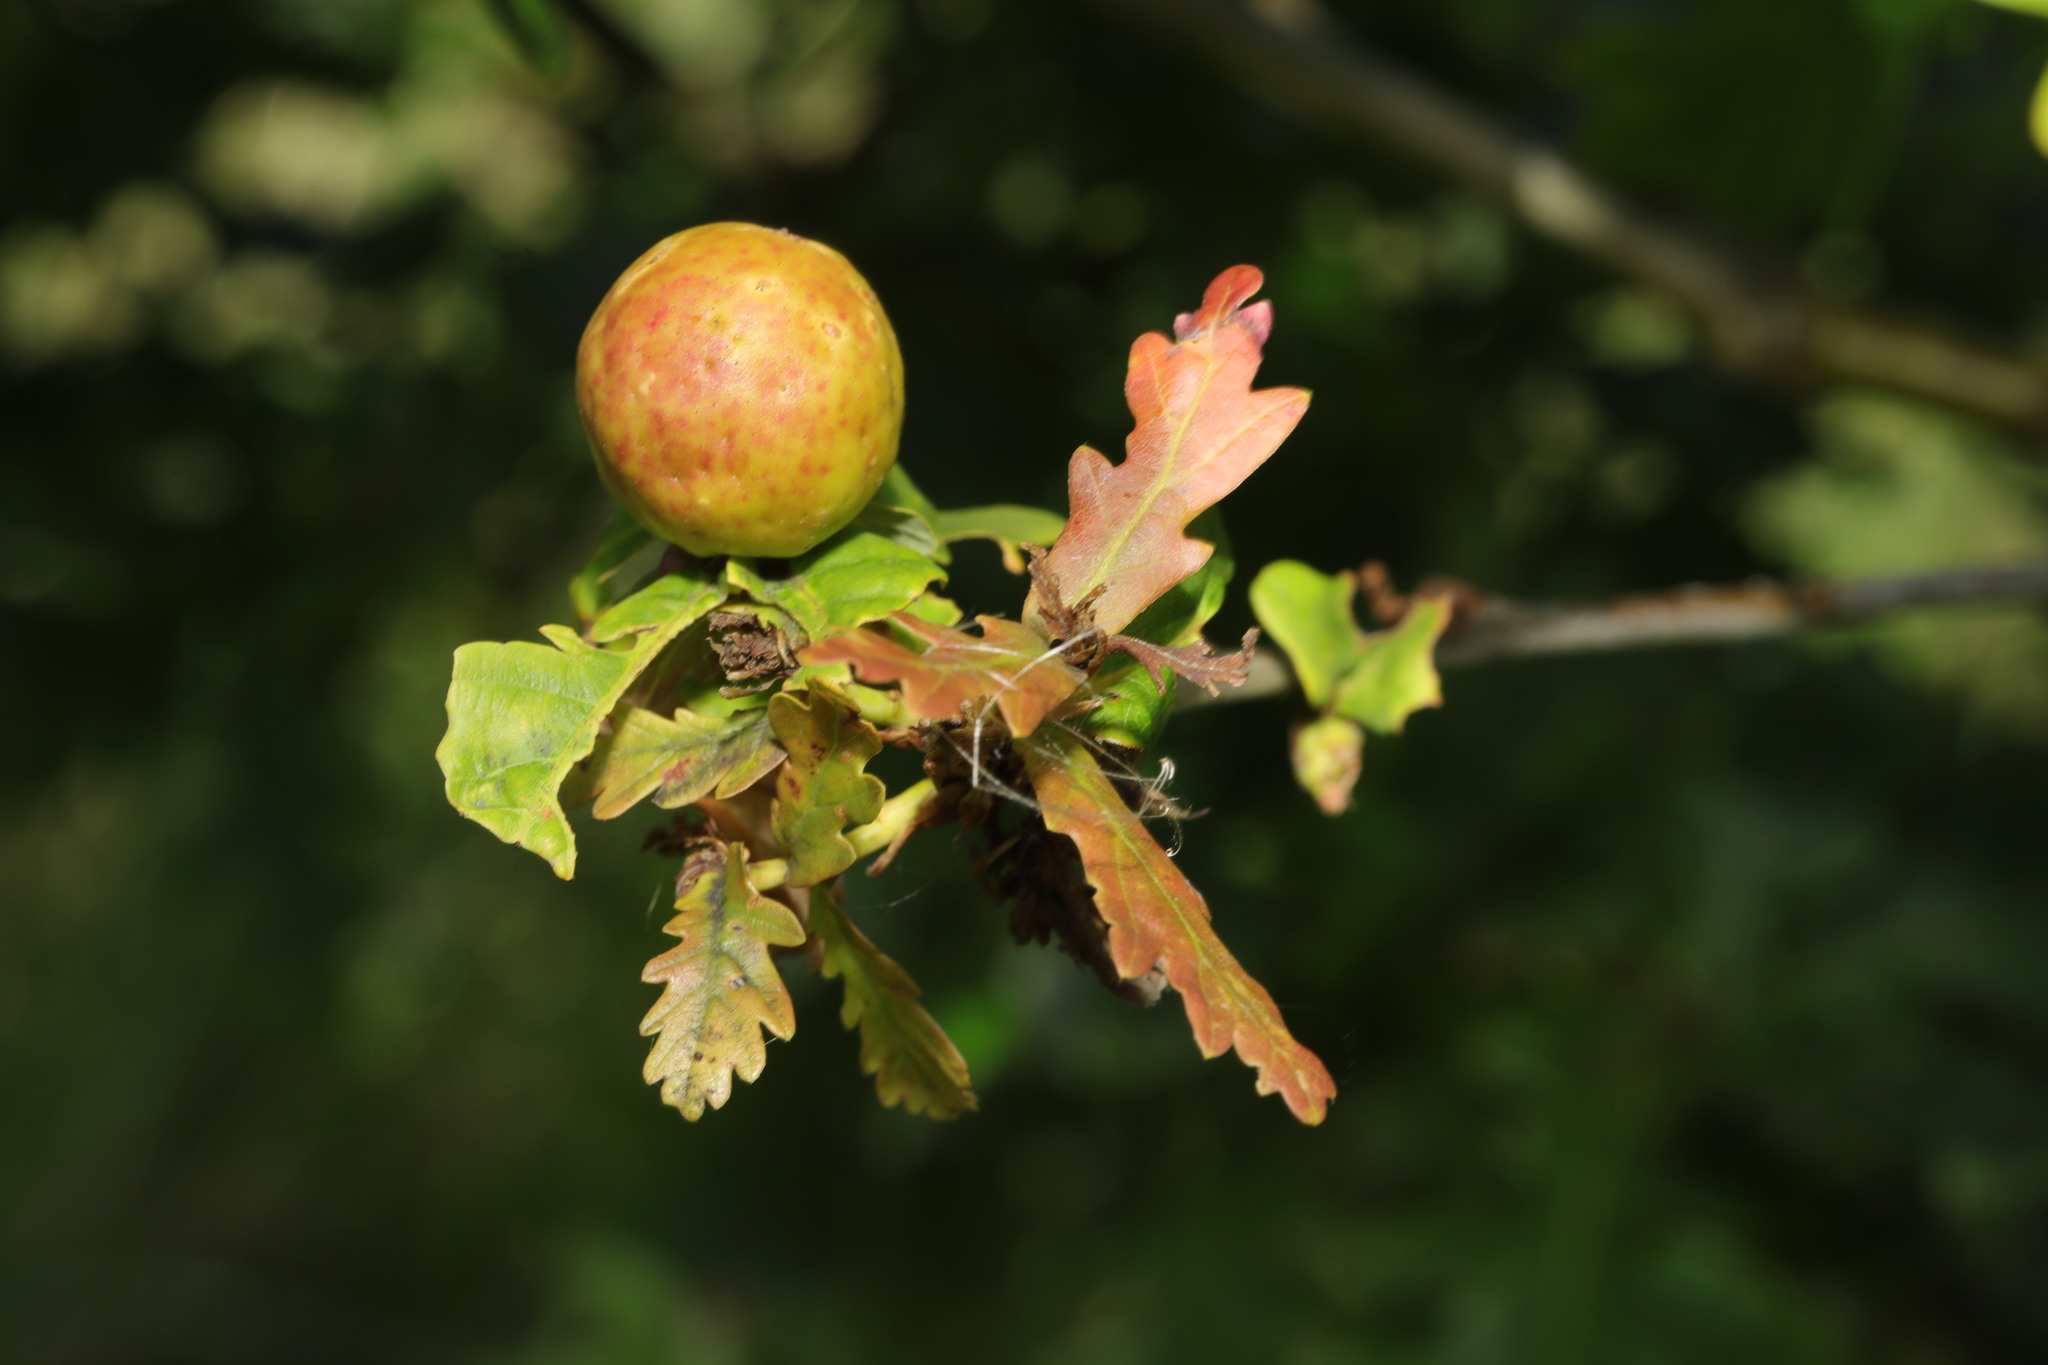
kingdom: Animalia
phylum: Arthropoda
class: Insecta
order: Hymenoptera
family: Cynipidae
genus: Andricus
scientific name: Andricus kollari
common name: Marble gall
